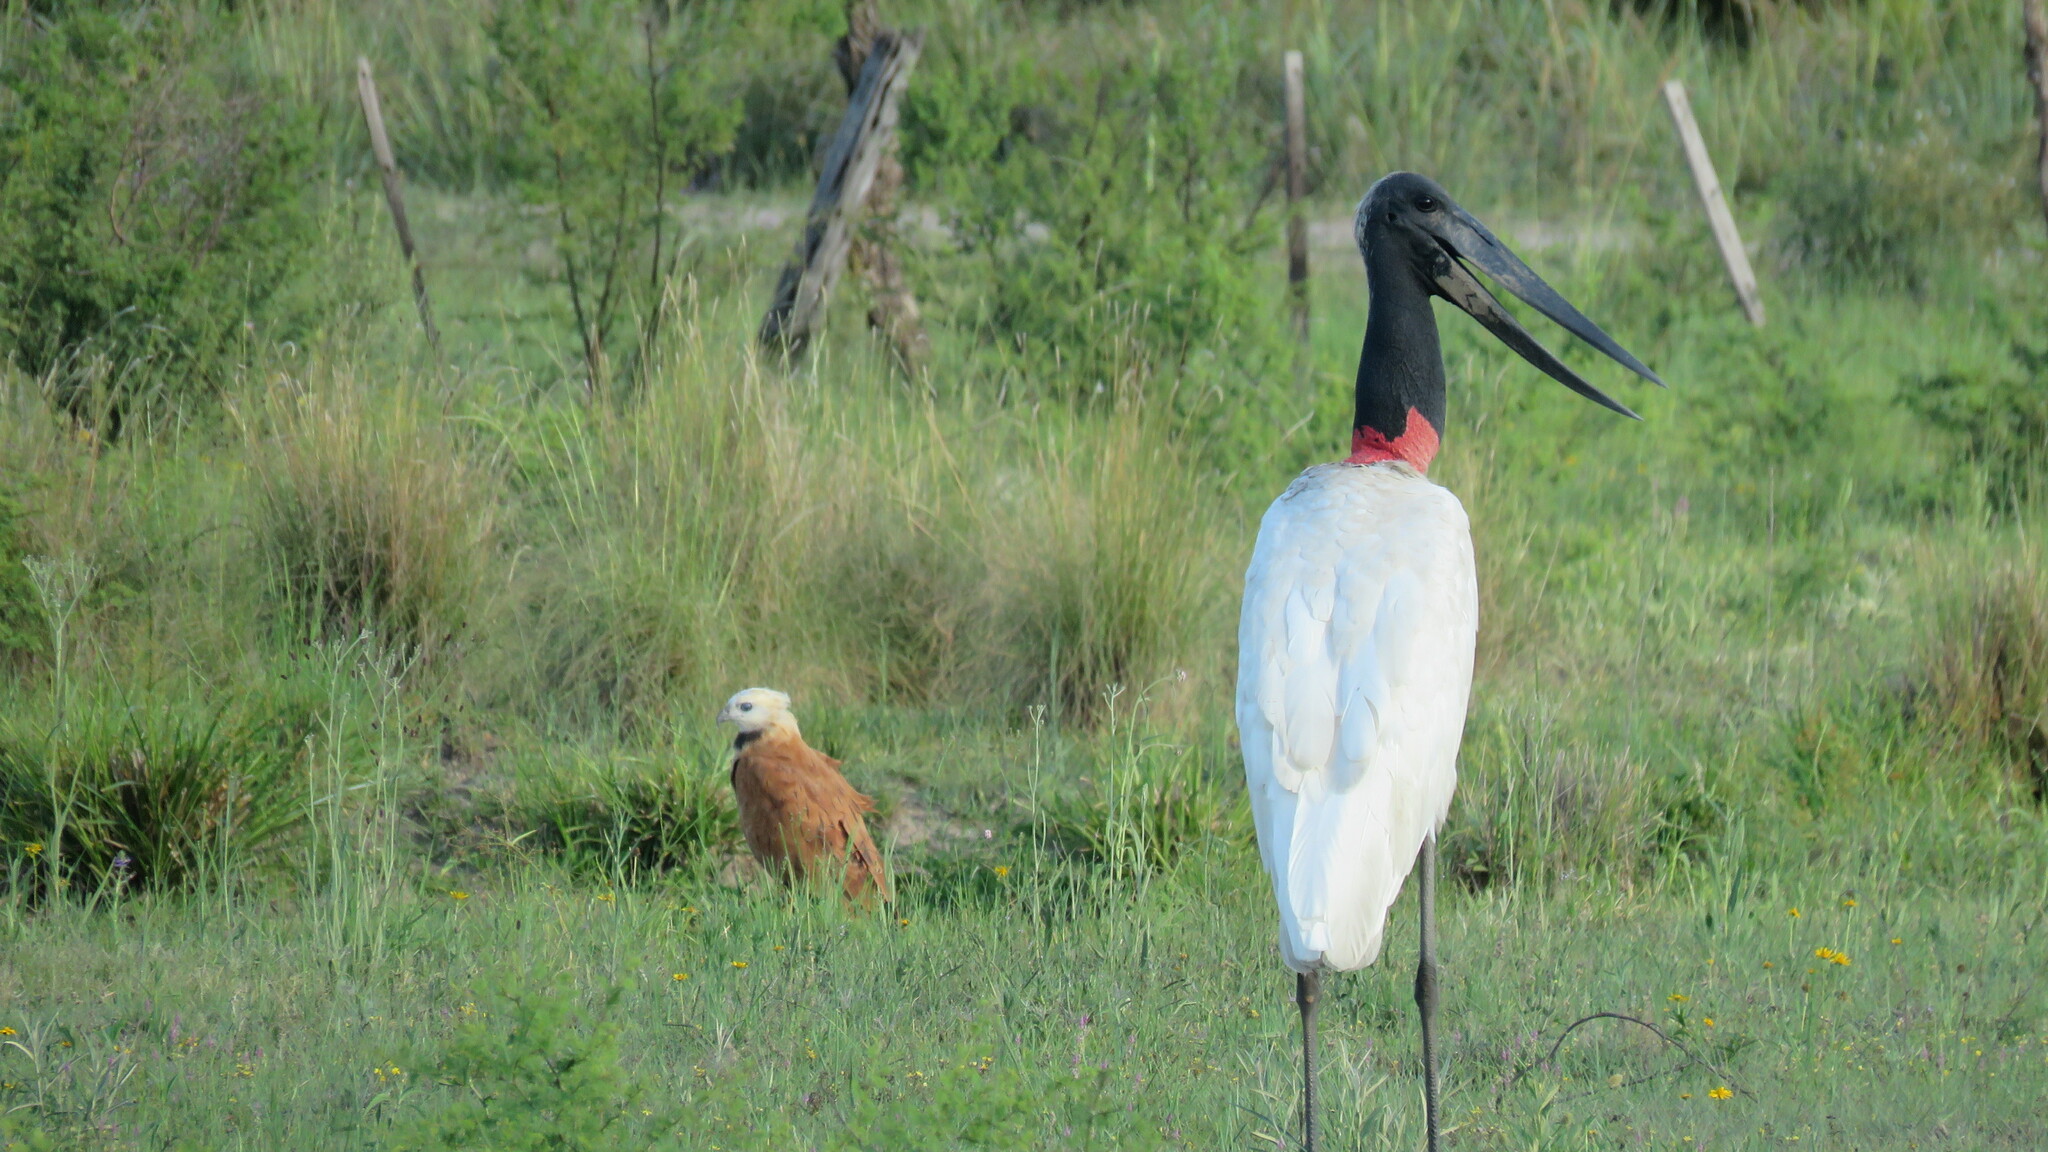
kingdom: Animalia
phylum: Chordata
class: Aves
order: Ciconiiformes
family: Ciconiidae
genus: Jabiru
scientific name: Jabiru mycteria
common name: Jabiru
